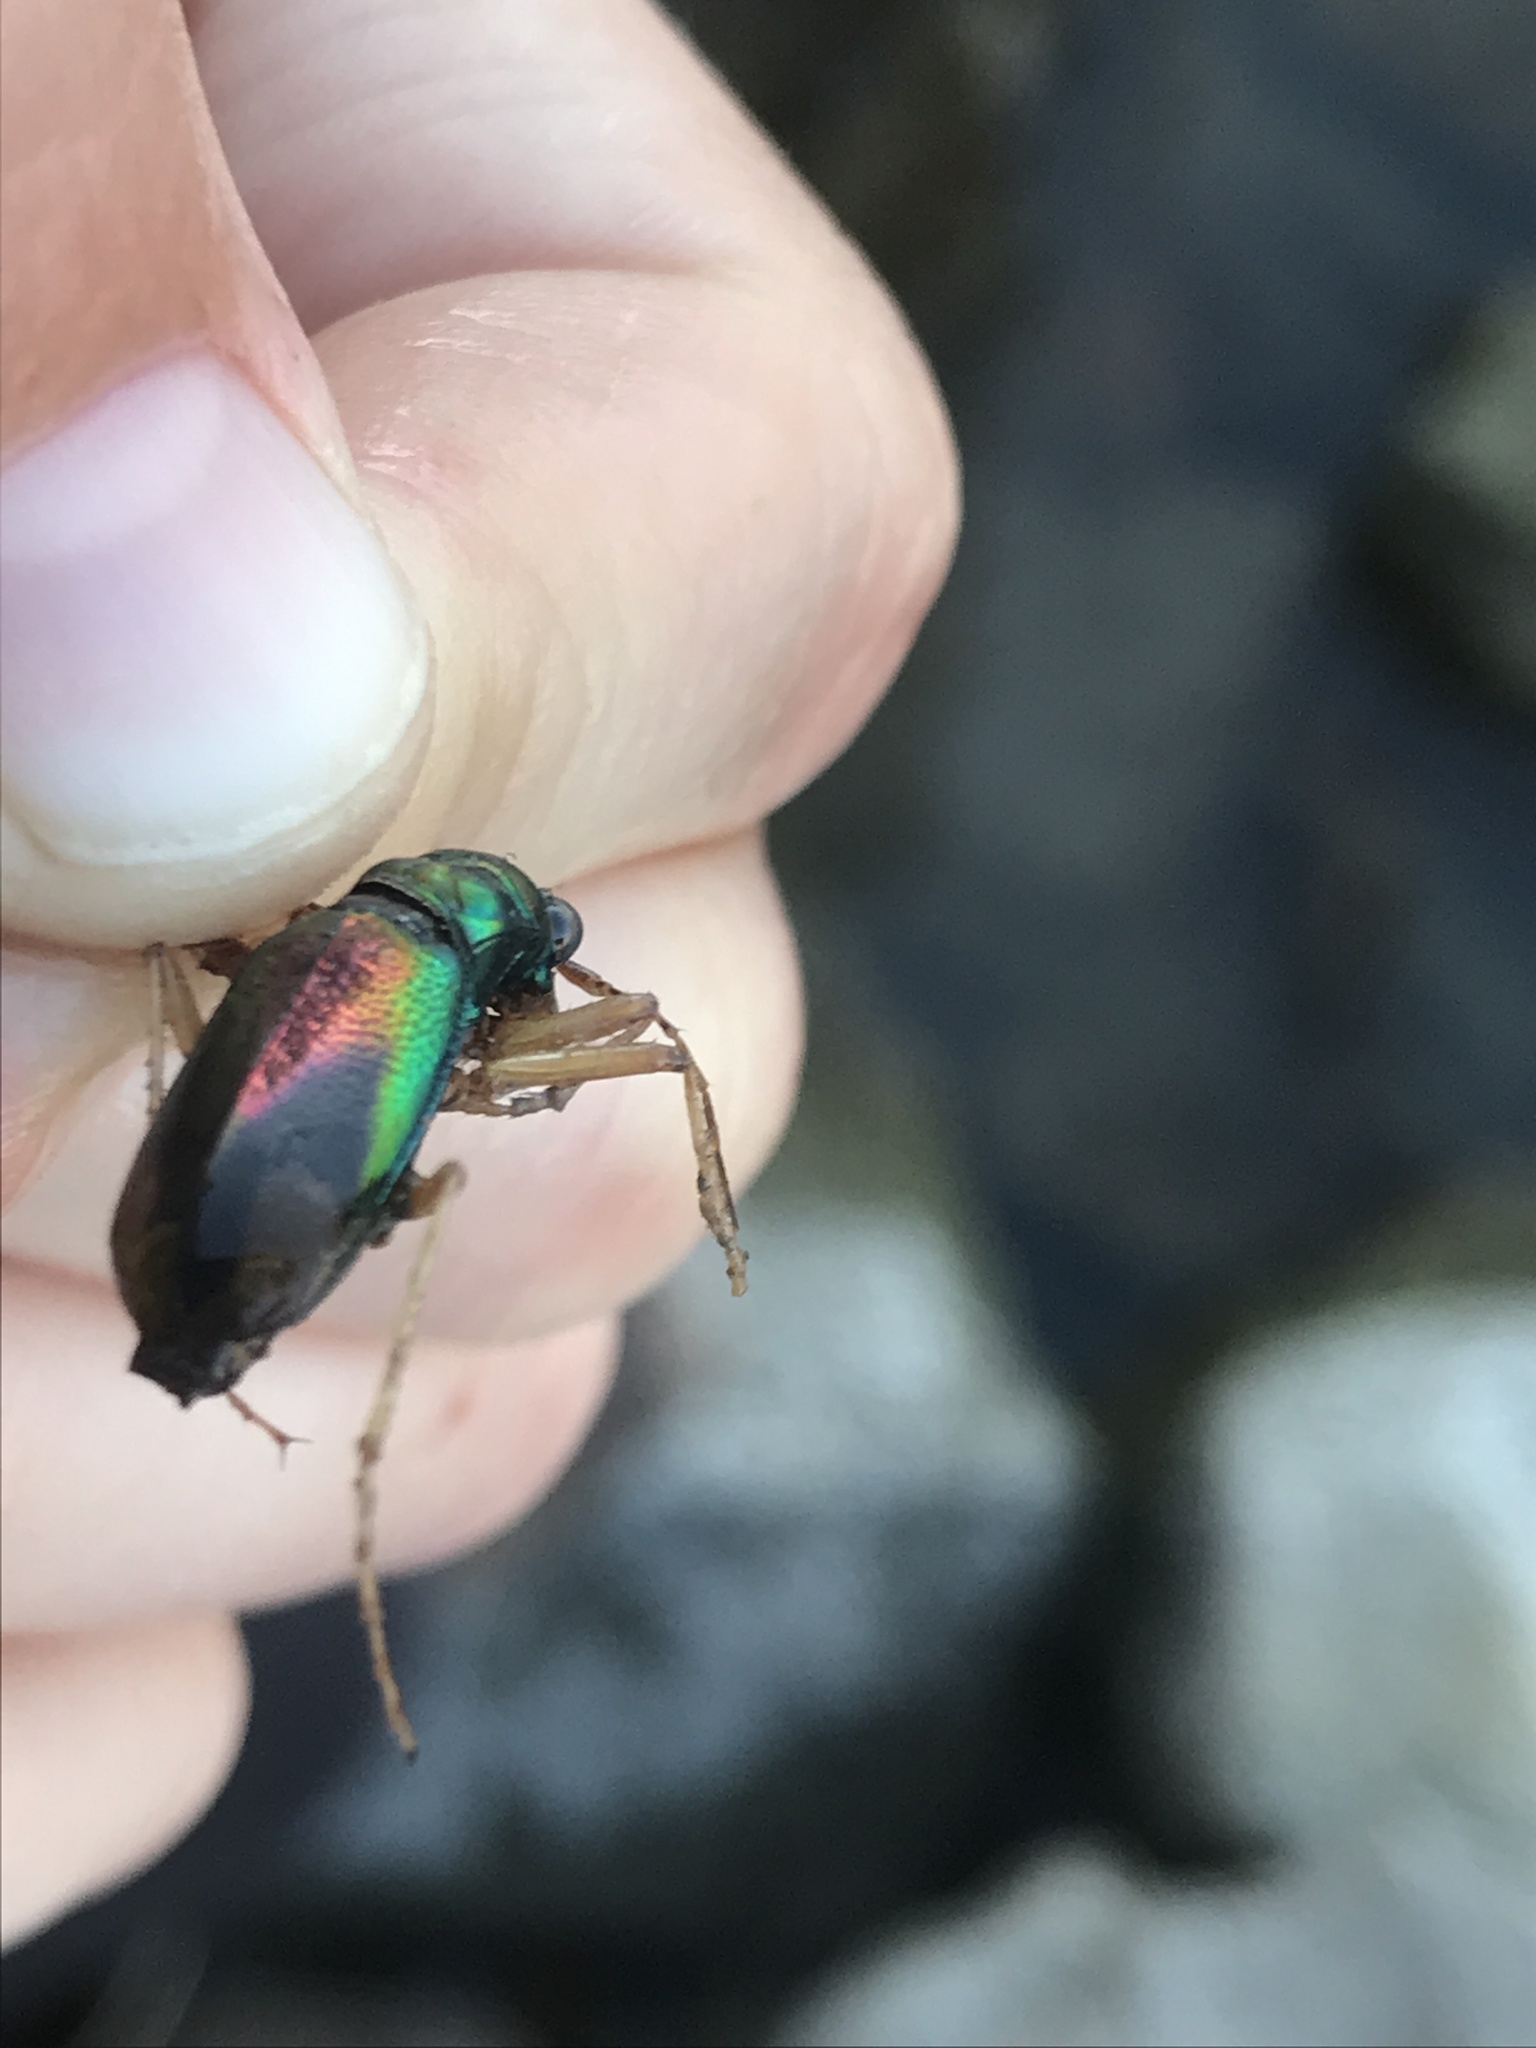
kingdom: Animalia
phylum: Arthropoda
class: Insecta
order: Coleoptera
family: Carabidae
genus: Tetracha
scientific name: Tetracha carolina
